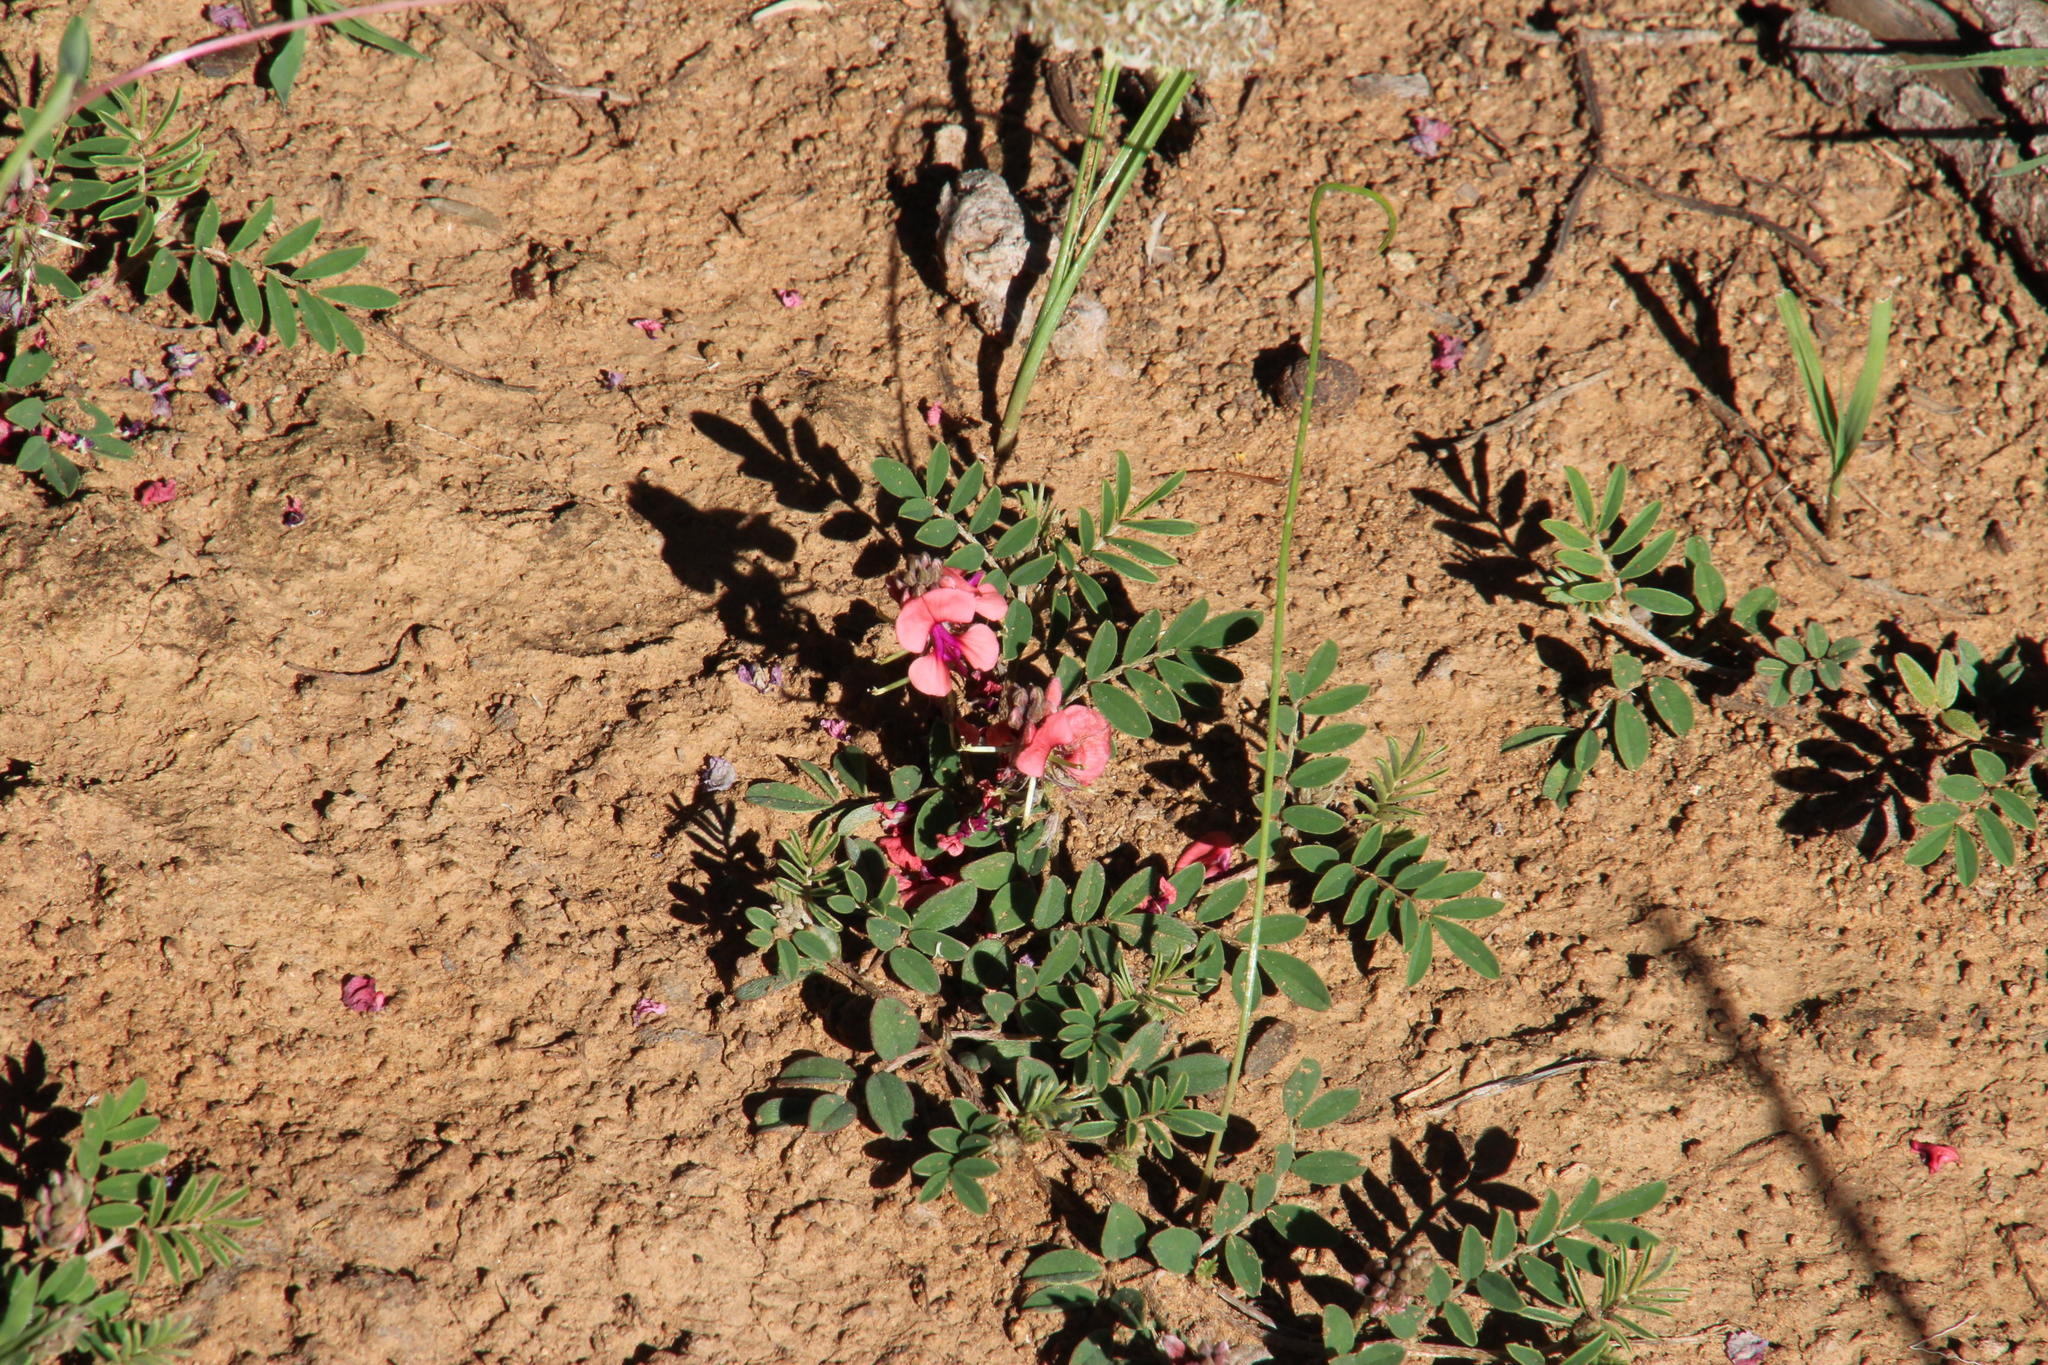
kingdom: Plantae
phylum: Tracheophyta
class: Magnoliopsida
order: Fabales
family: Fabaceae
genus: Indigofera
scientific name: Indigofera alternans
